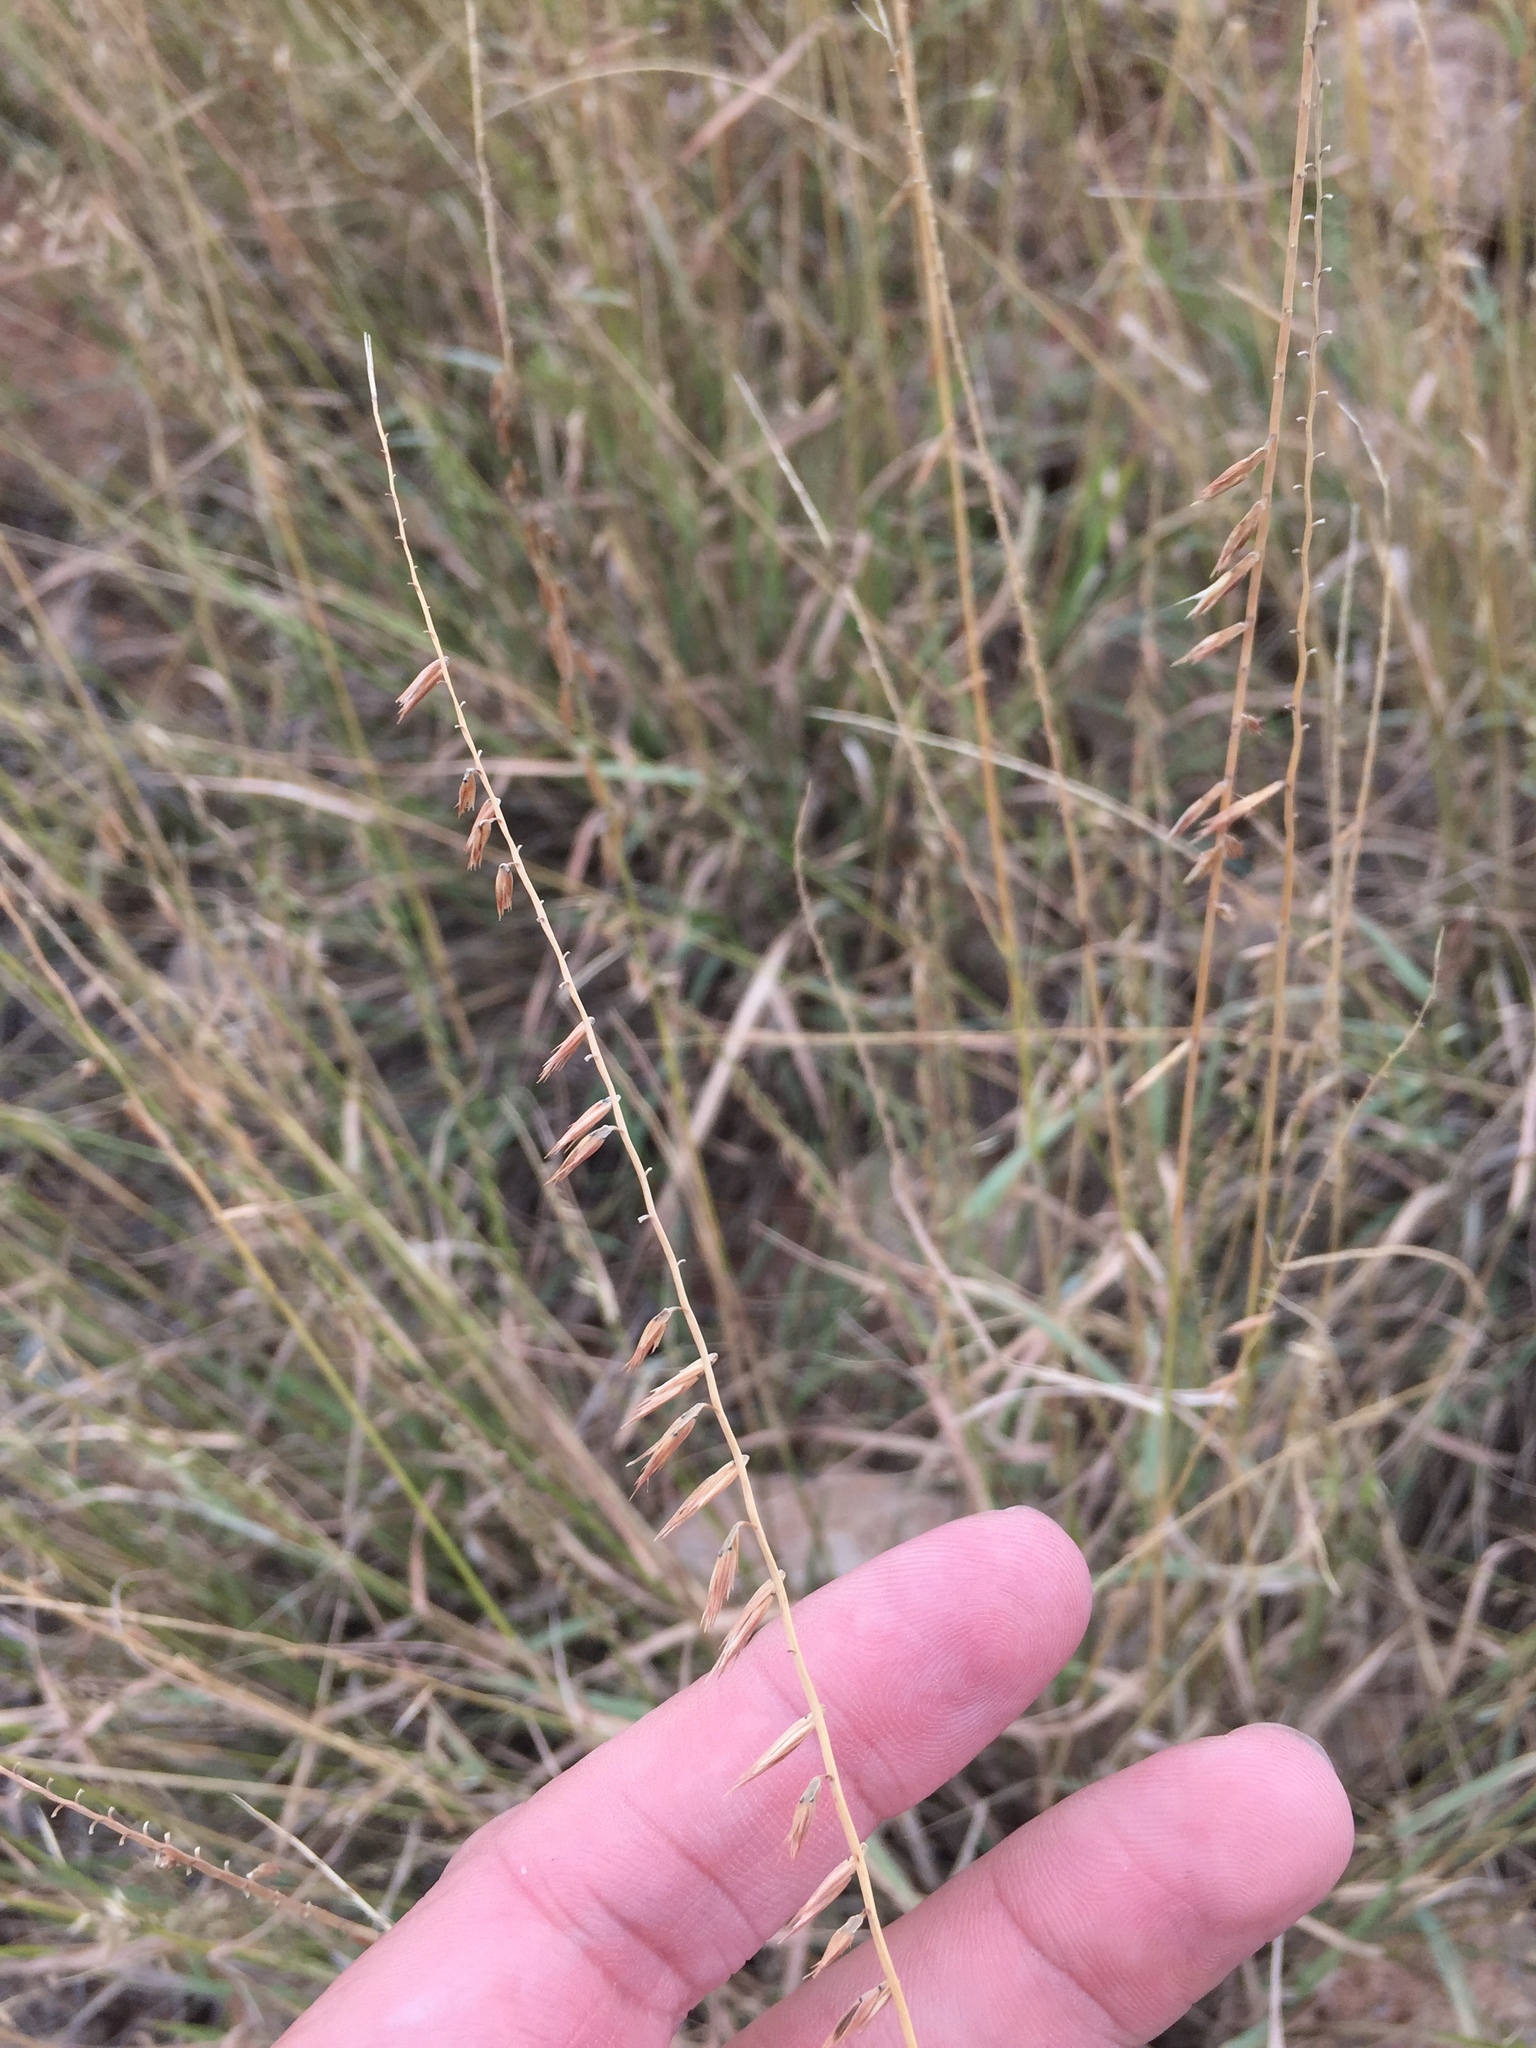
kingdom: Plantae
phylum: Tracheophyta
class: Liliopsida
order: Poales
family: Poaceae
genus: Bouteloua
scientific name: Bouteloua curtipendula
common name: Side-oats grama
